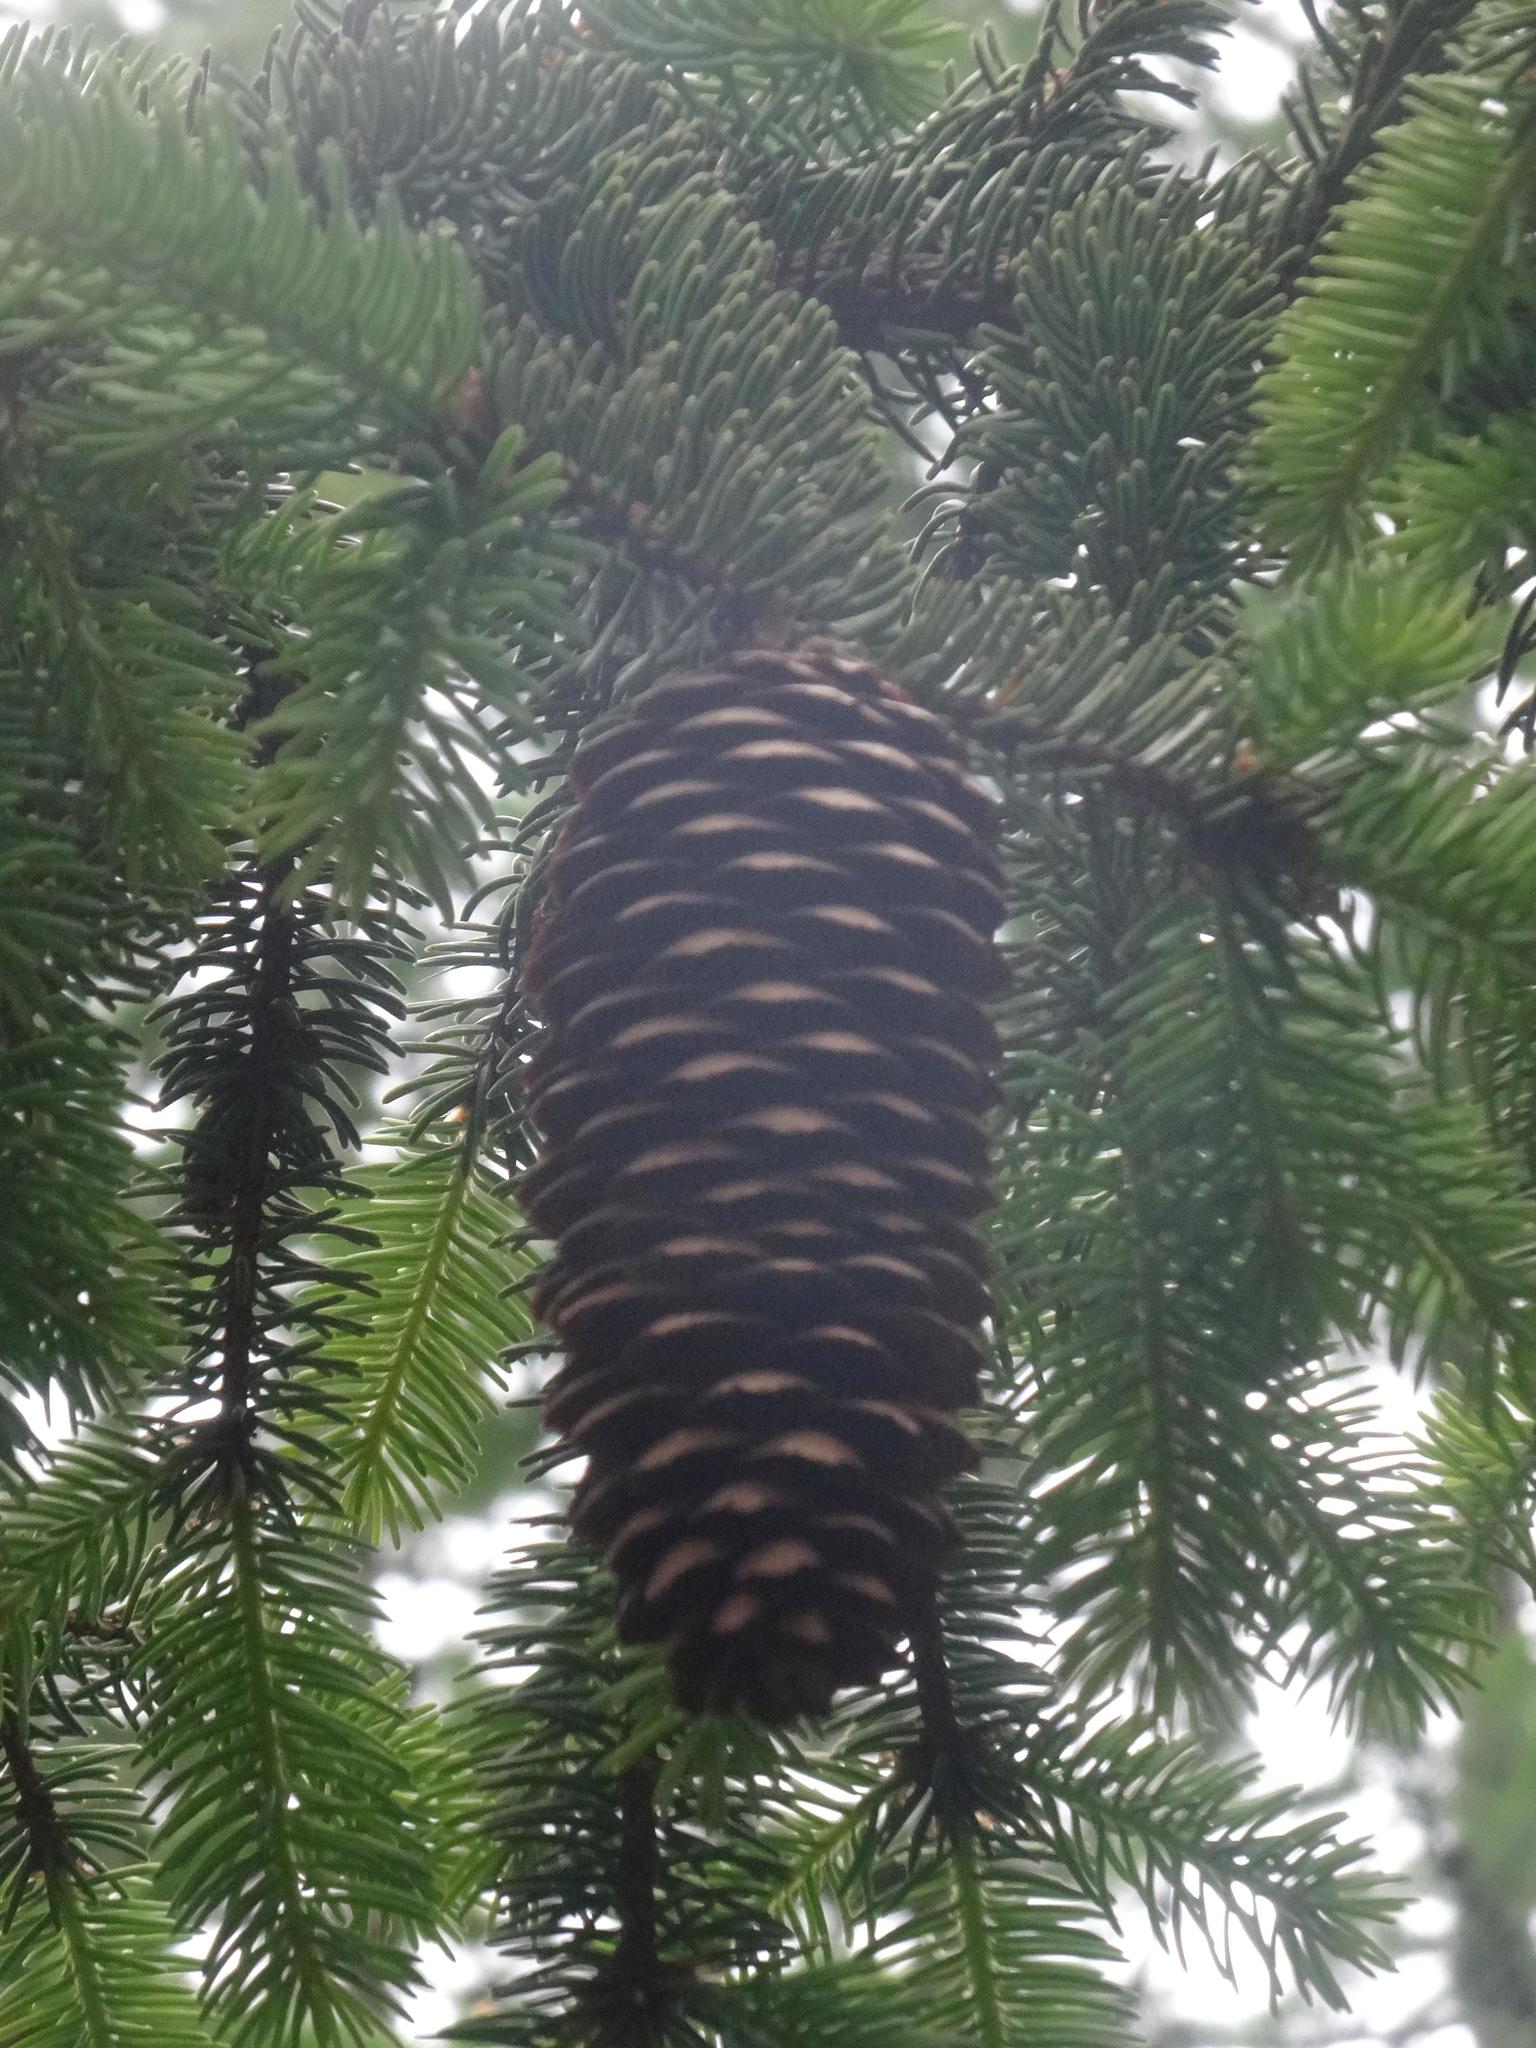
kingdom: Plantae
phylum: Tracheophyta
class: Pinopsida
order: Pinales
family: Pinaceae
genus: Picea
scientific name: Picea abies
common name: Norway spruce
